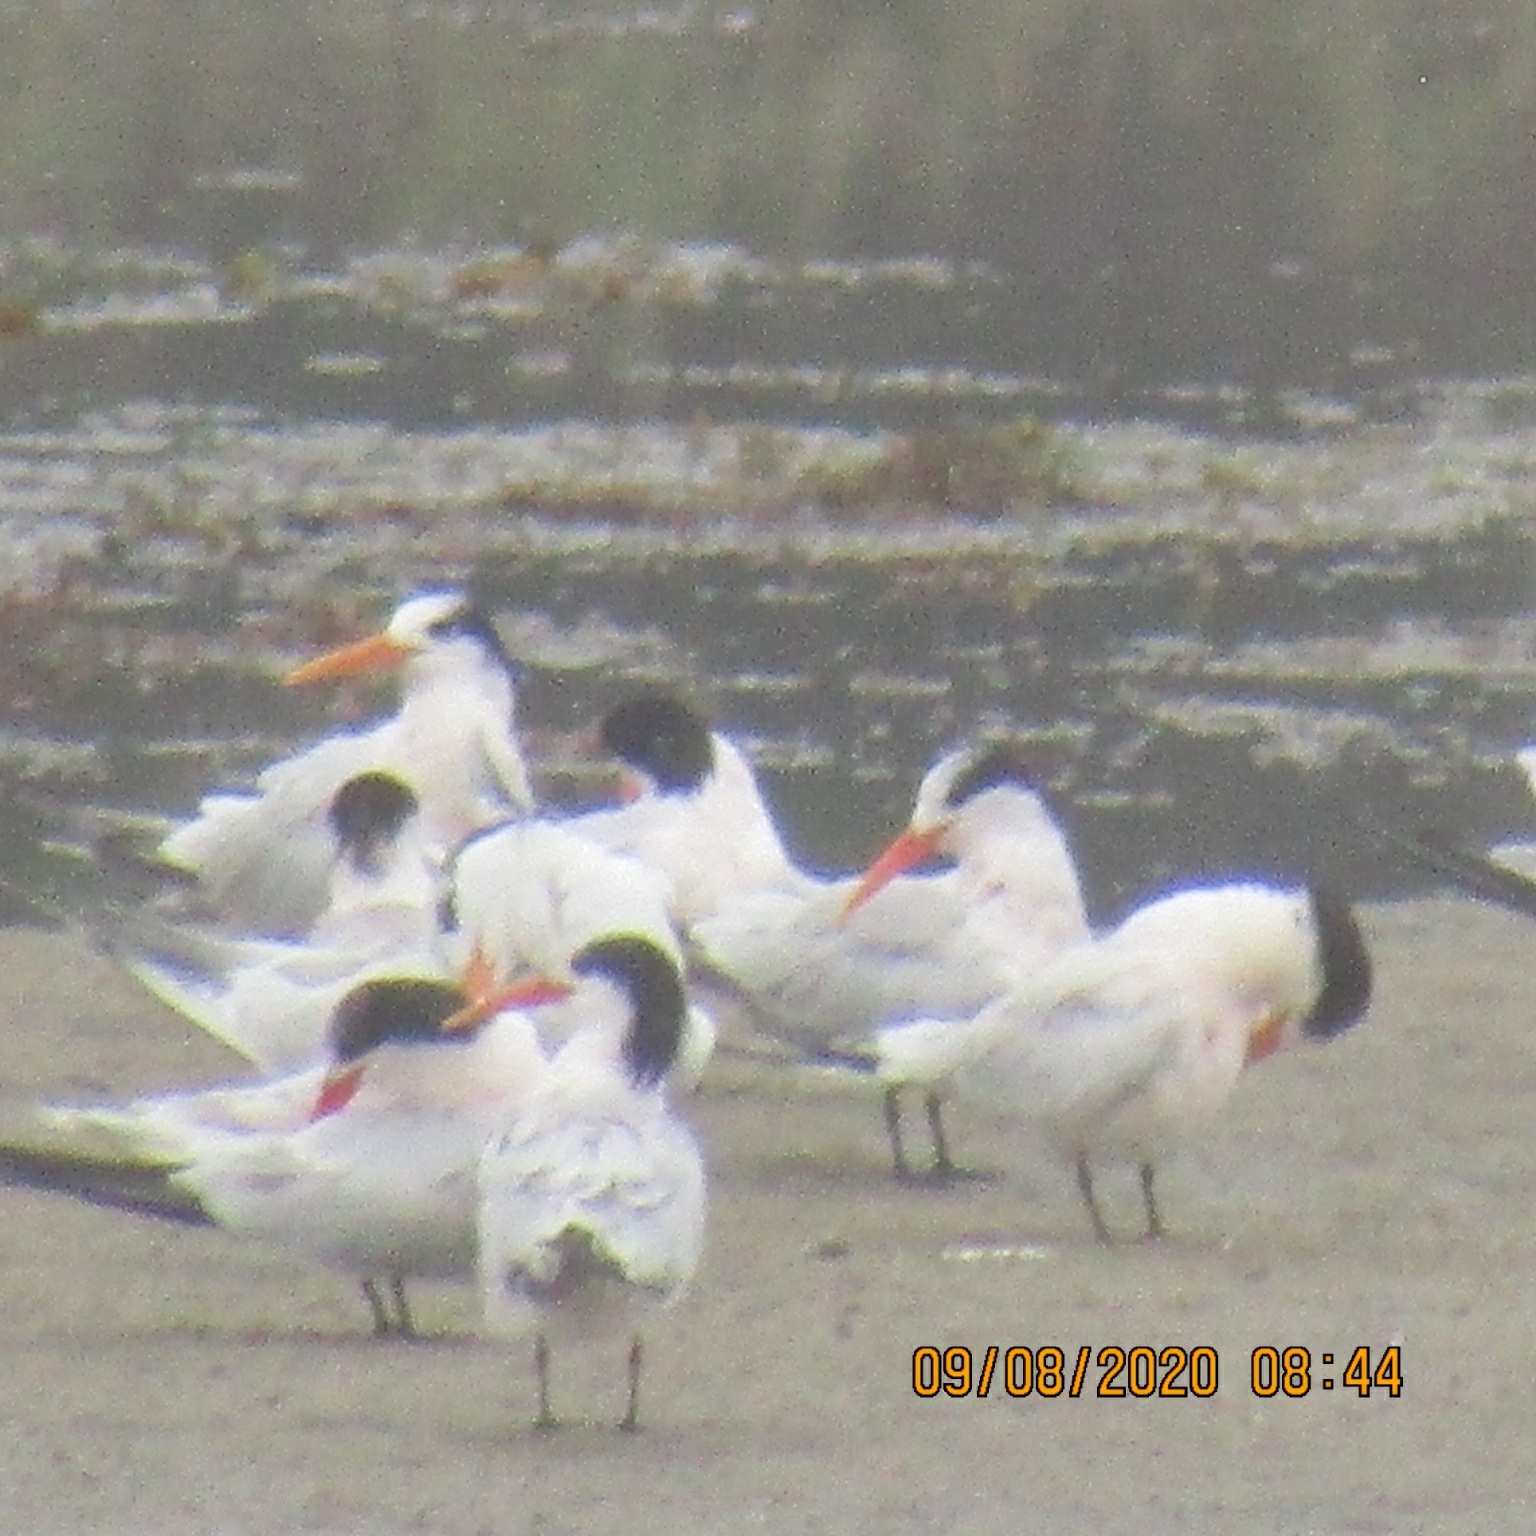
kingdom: Animalia
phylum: Chordata
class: Aves
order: Charadriiformes
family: Laridae
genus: Thalasseus
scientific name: Thalasseus elegans
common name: Elegant tern
